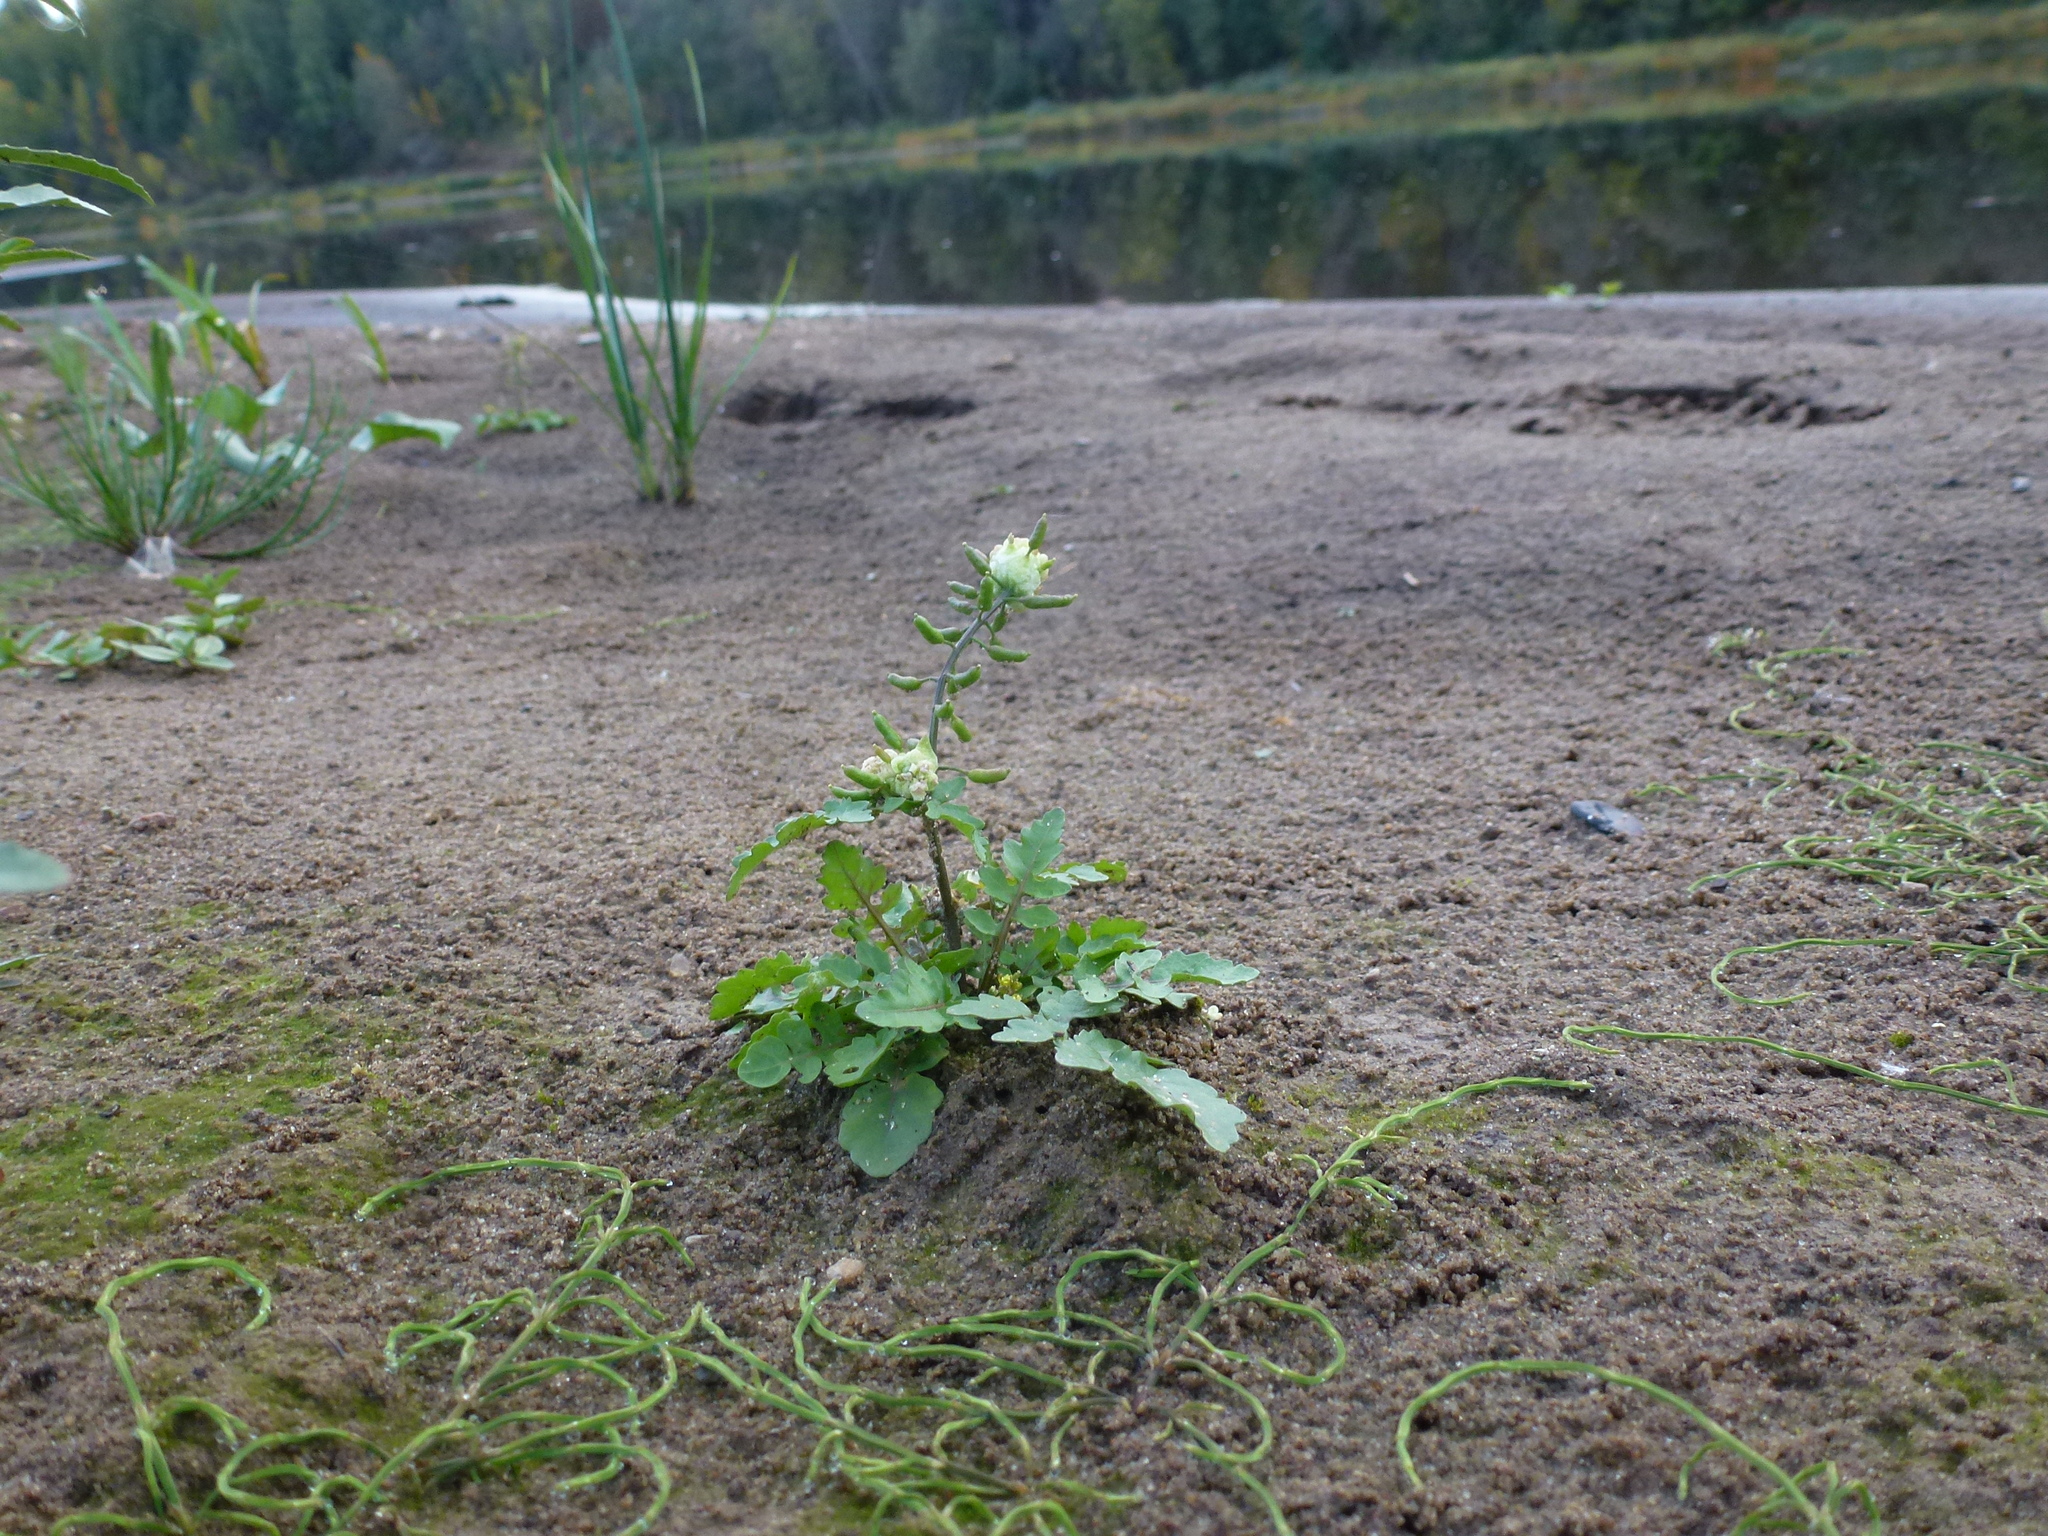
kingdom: Plantae
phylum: Tracheophyta
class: Magnoliopsida
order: Brassicales
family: Brassicaceae
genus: Rorippa
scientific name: Rorippa palustris
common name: Marsh yellow-cress
